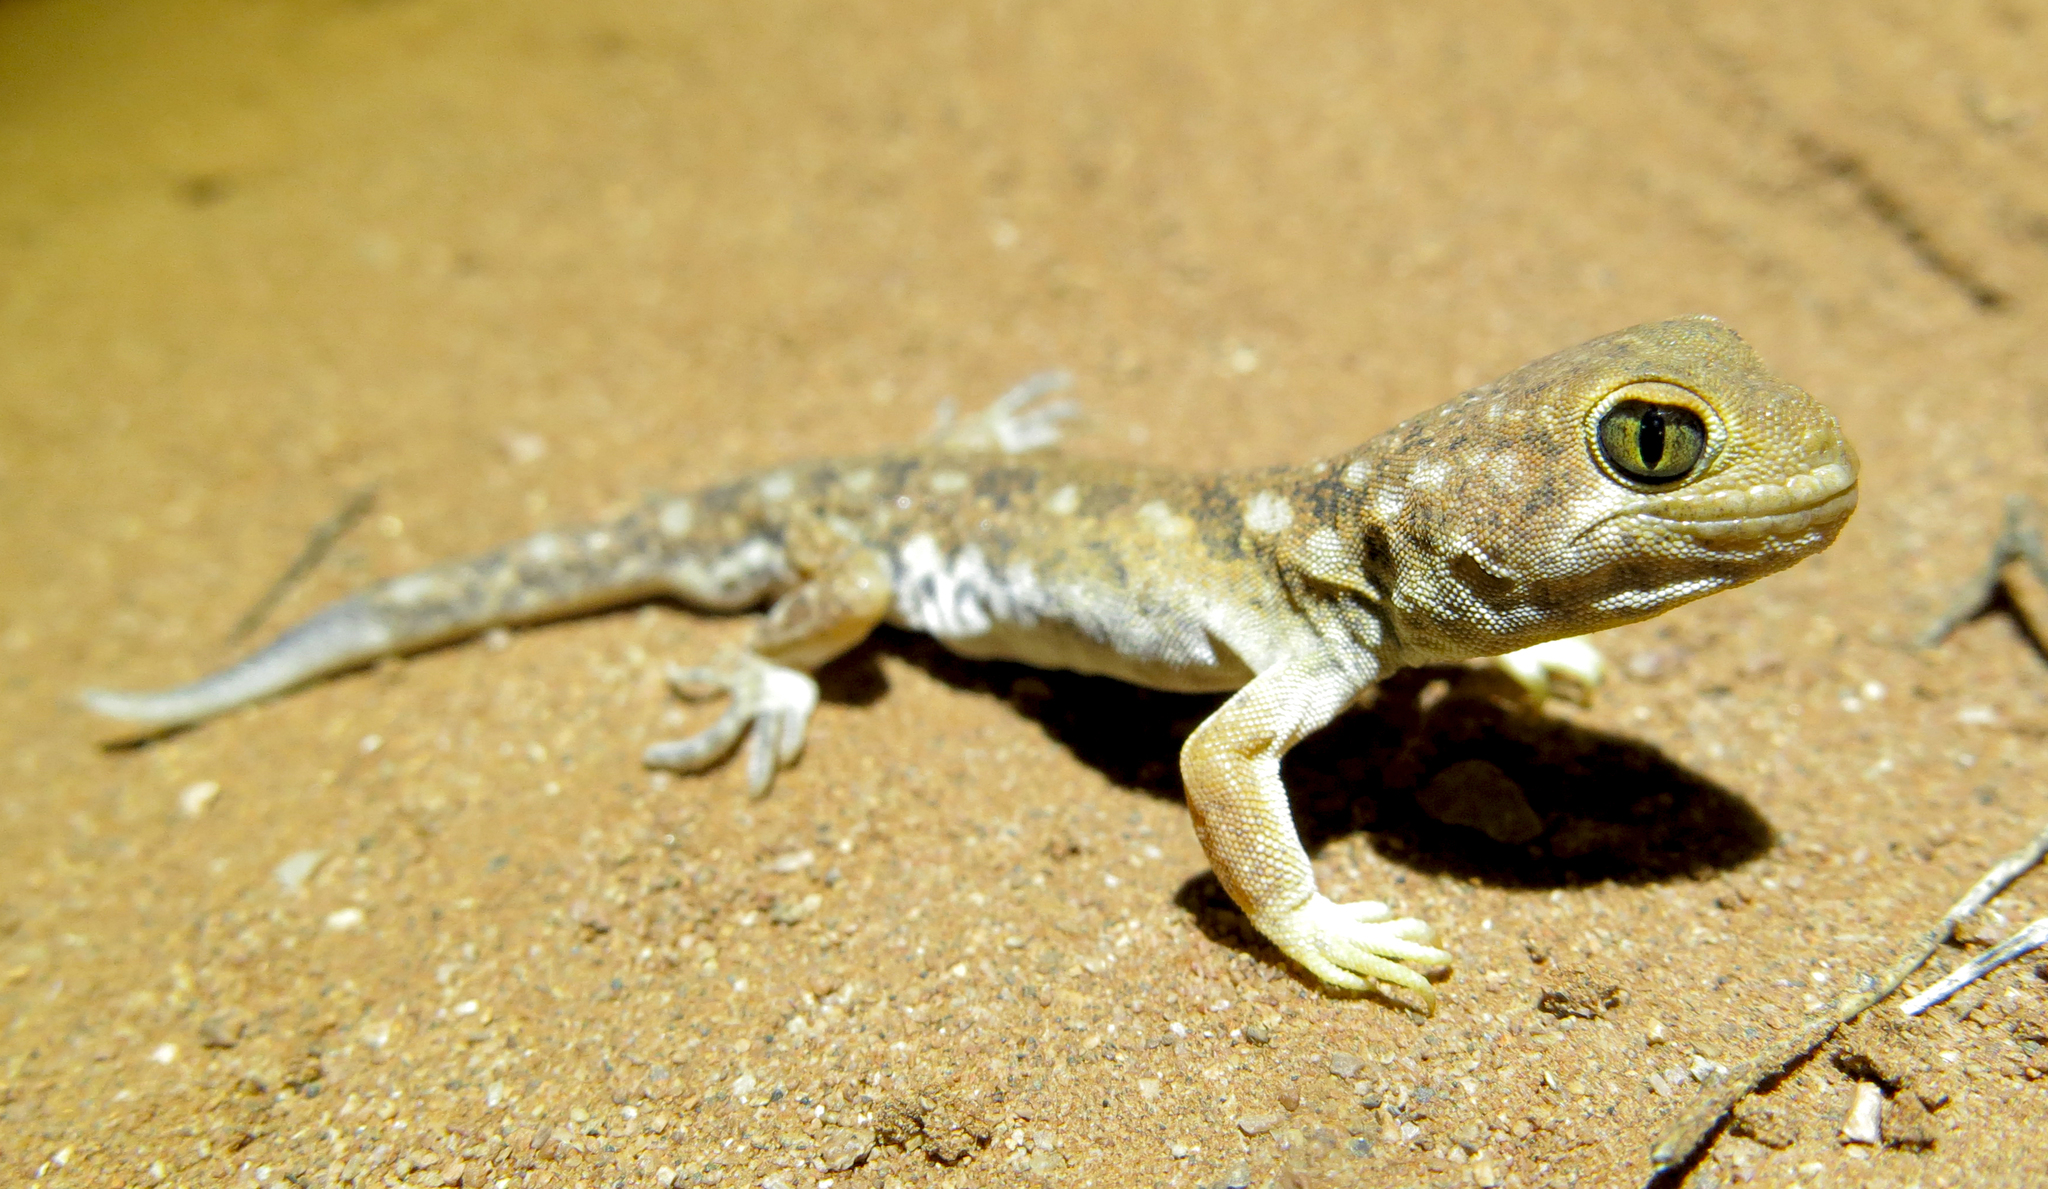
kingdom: Animalia
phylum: Chordata
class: Squamata
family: Gekkonidae
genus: Ptenopus
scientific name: Ptenopus garrulus
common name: Whistling gecko
